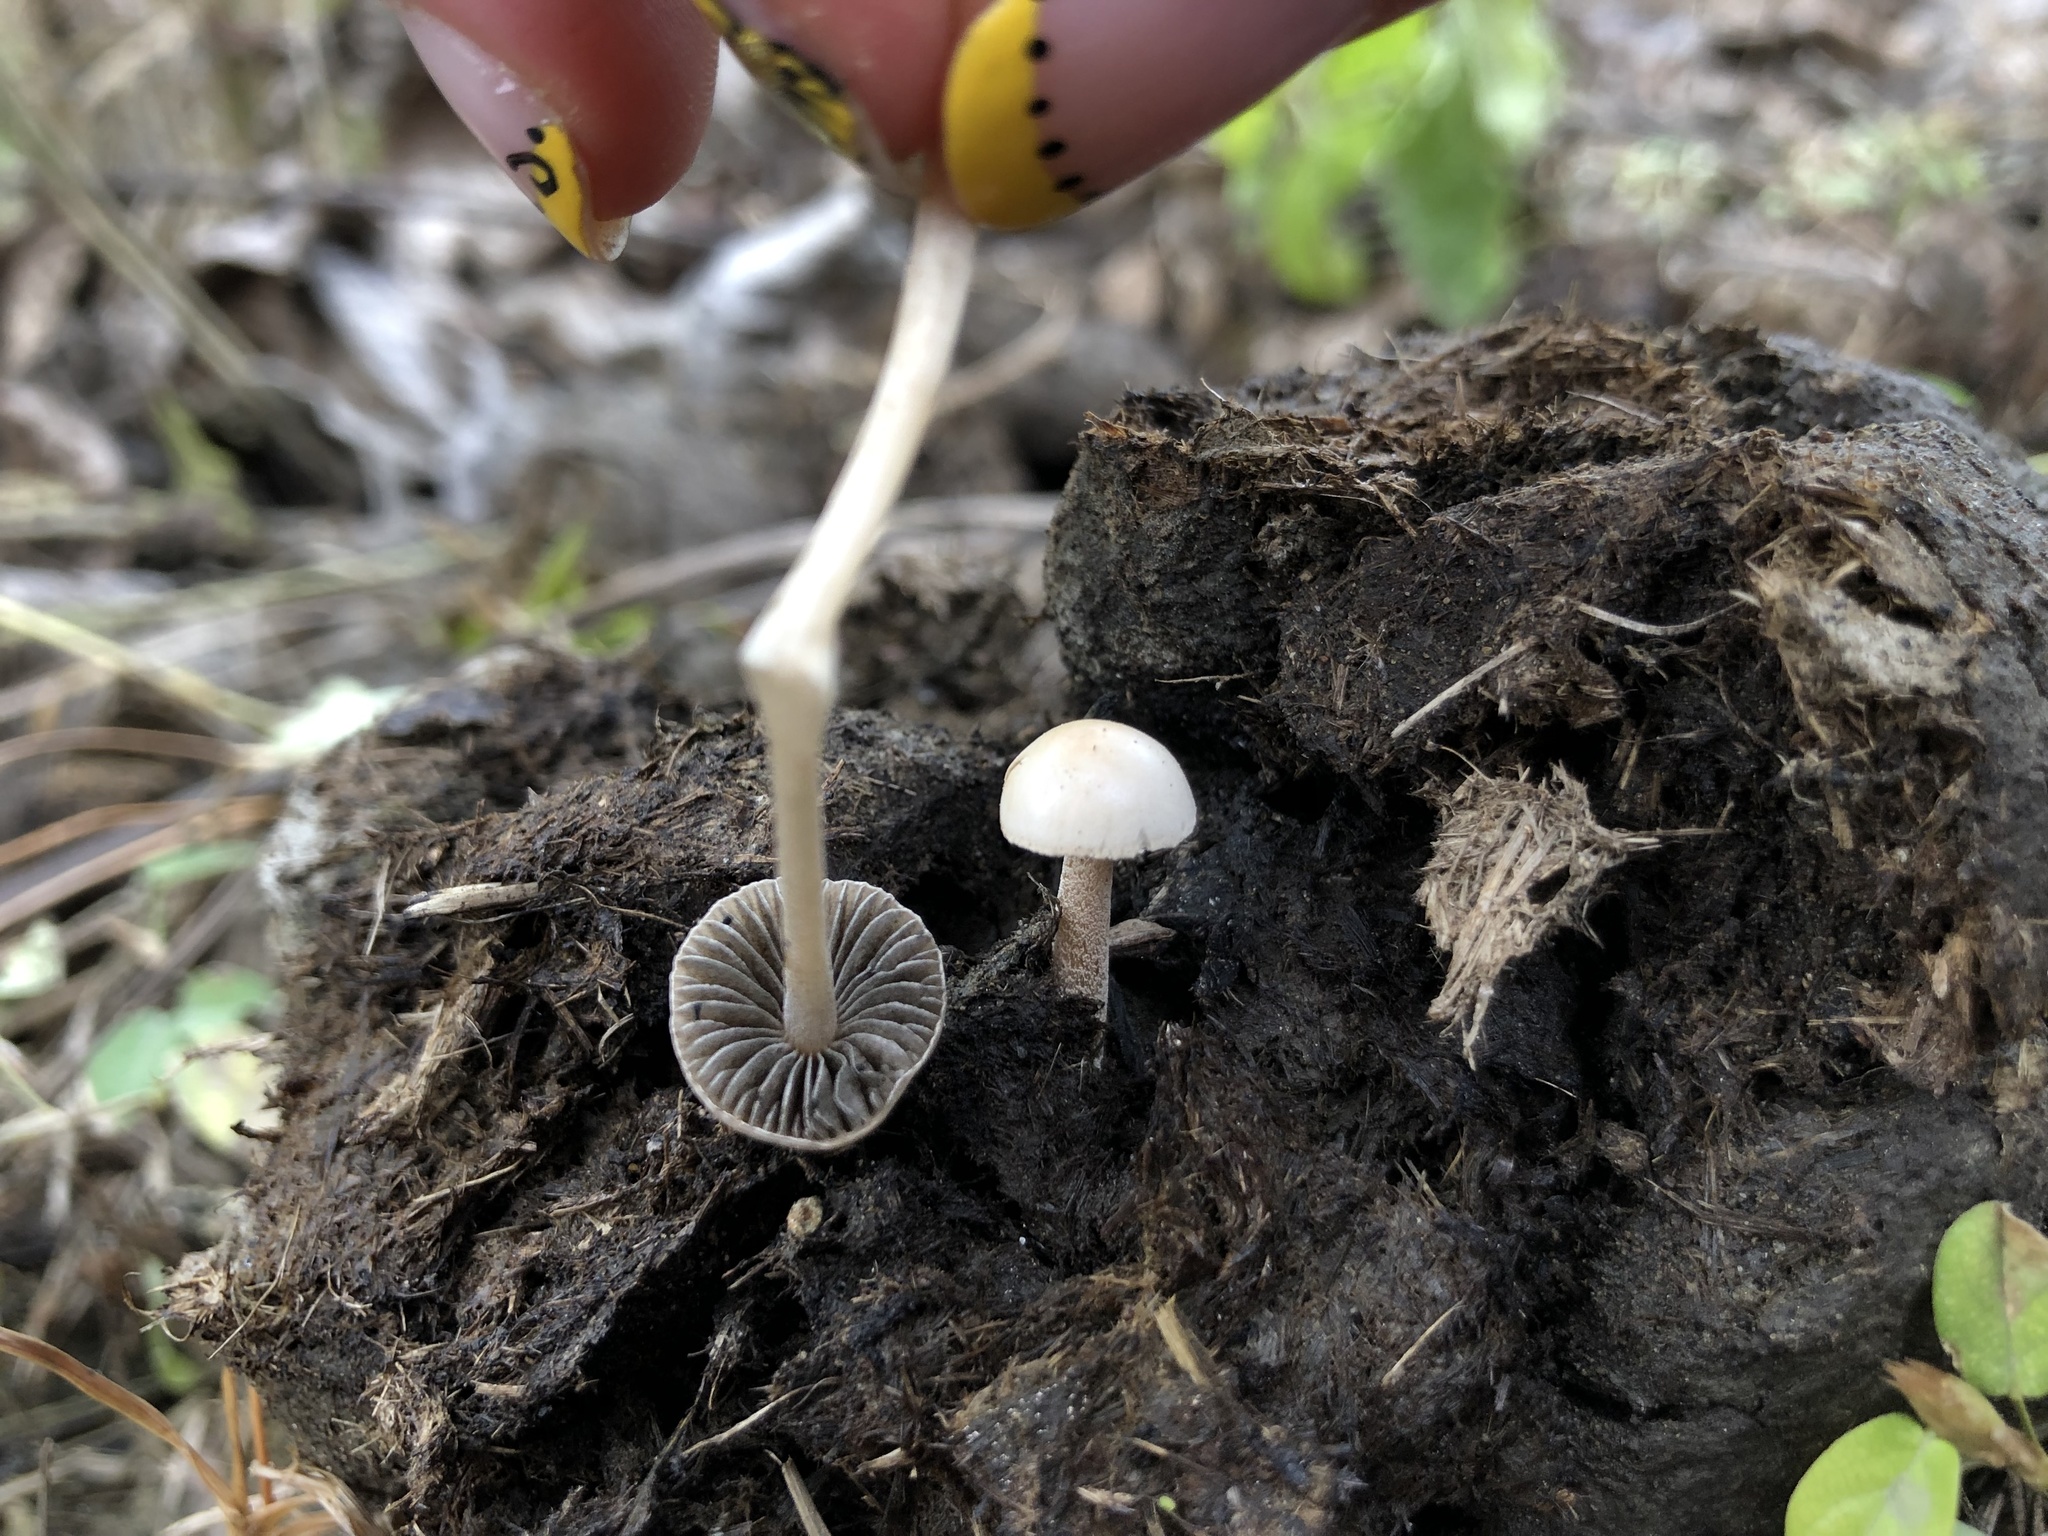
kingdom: Fungi
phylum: Basidiomycota
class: Agaricomycetes
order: Agaricales
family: Bolbitiaceae
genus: Panaeolus
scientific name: Panaeolus antillarum
